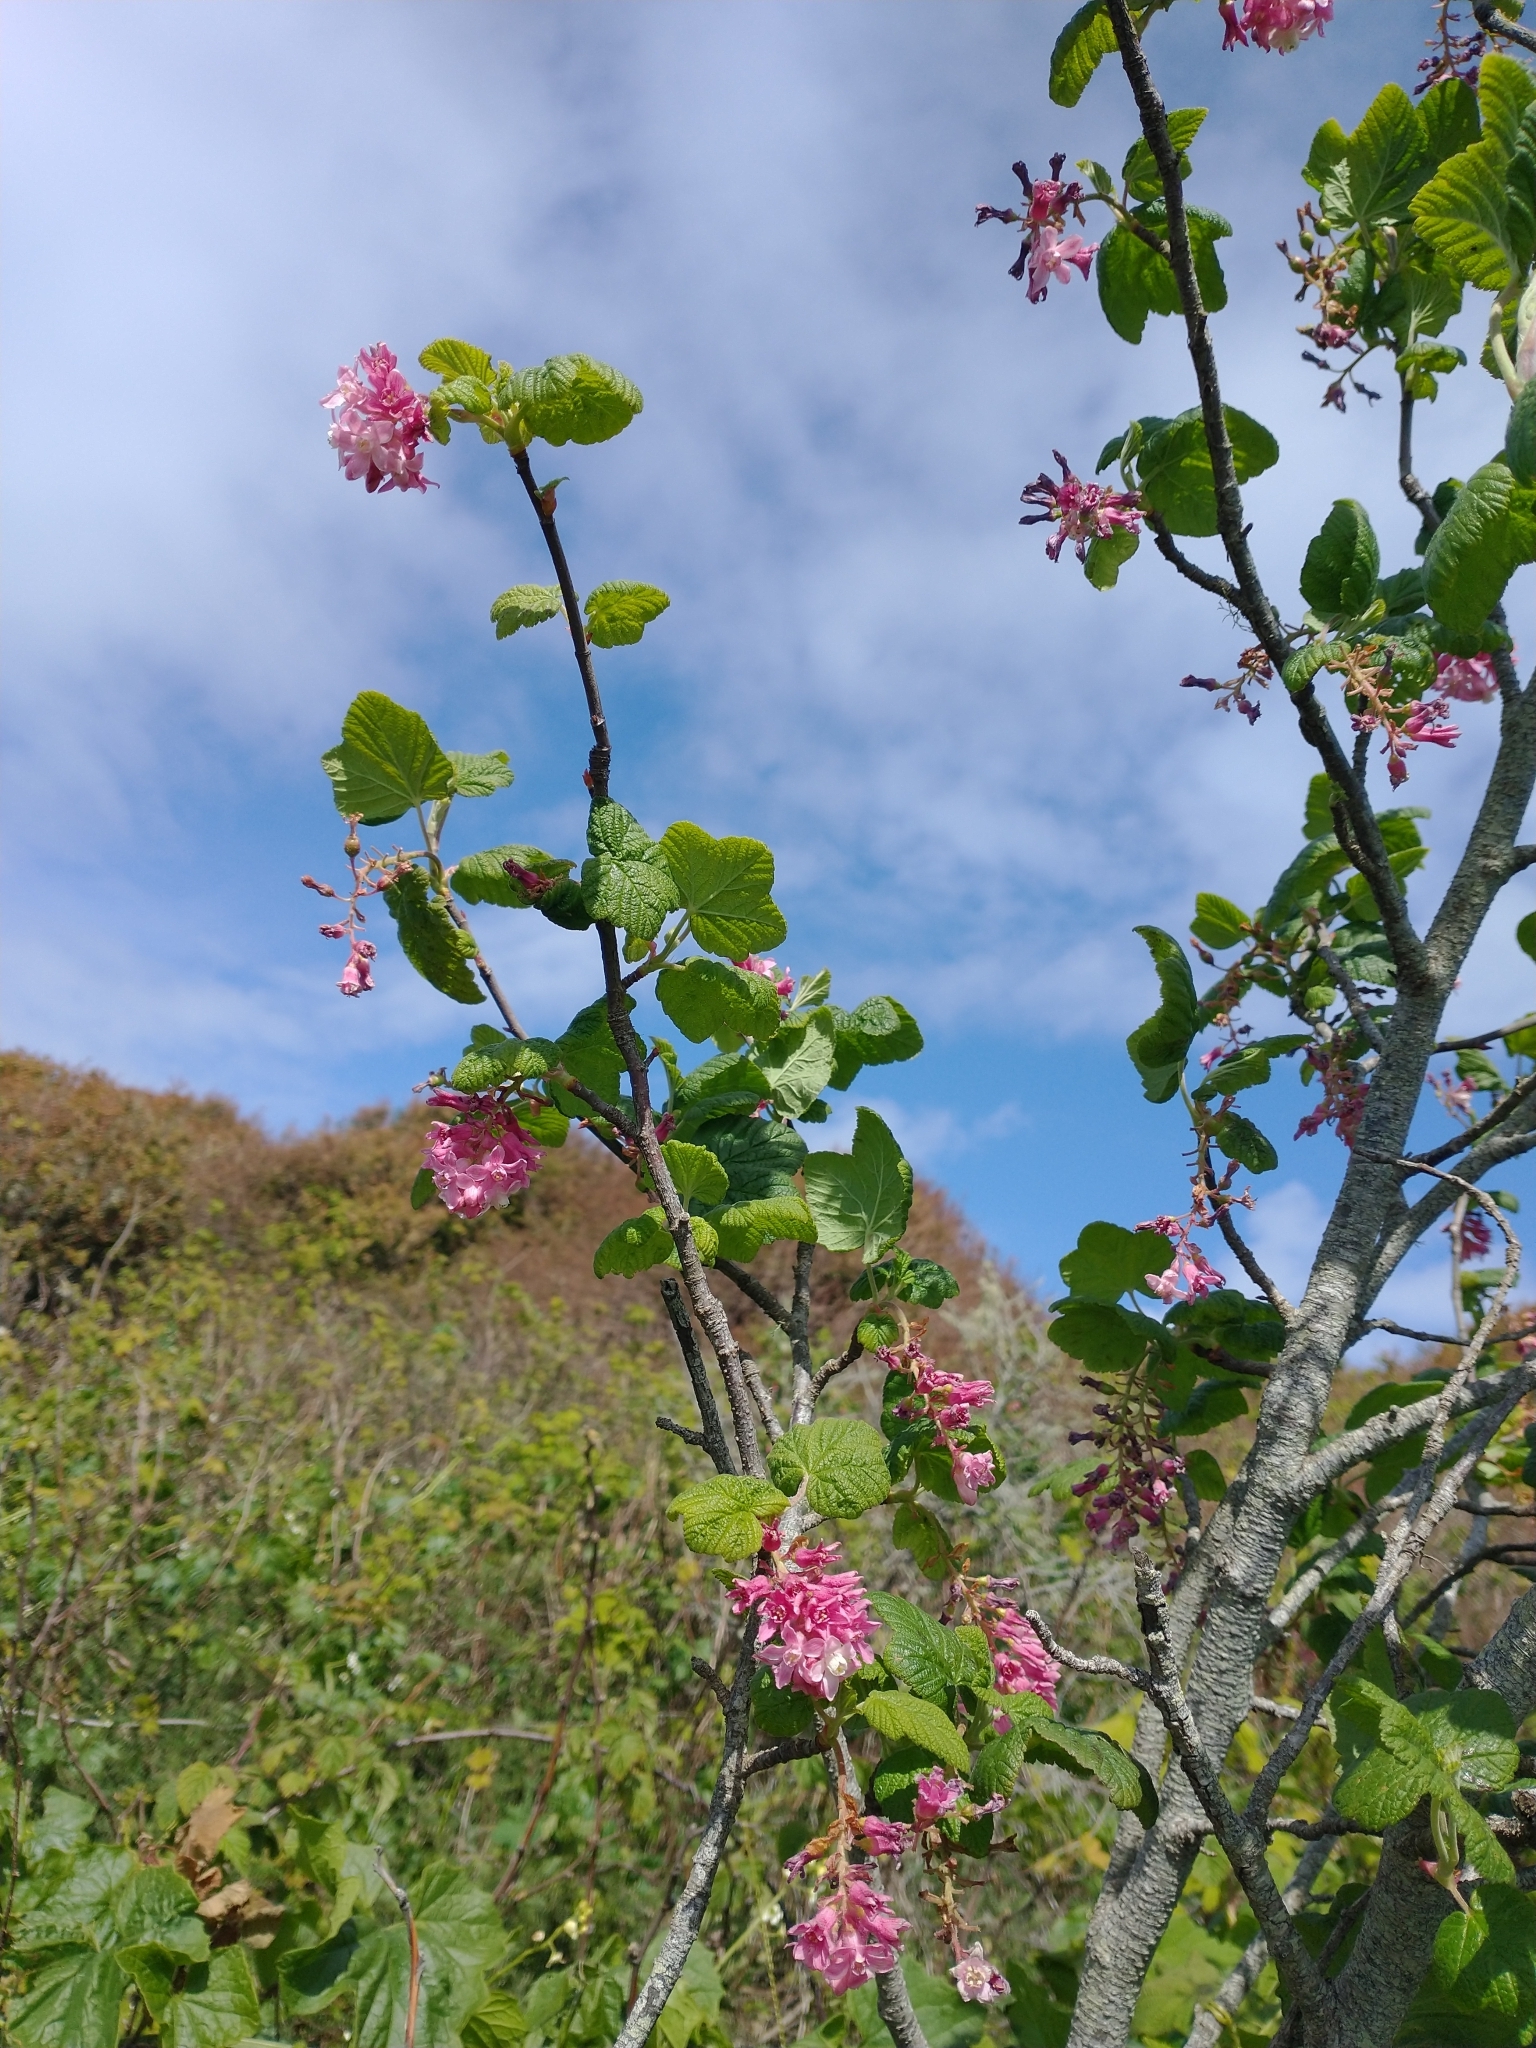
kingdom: Plantae
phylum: Tracheophyta
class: Magnoliopsida
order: Saxifragales
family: Grossulariaceae
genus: Ribes
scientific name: Ribes sanguineum
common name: Flowering currant
